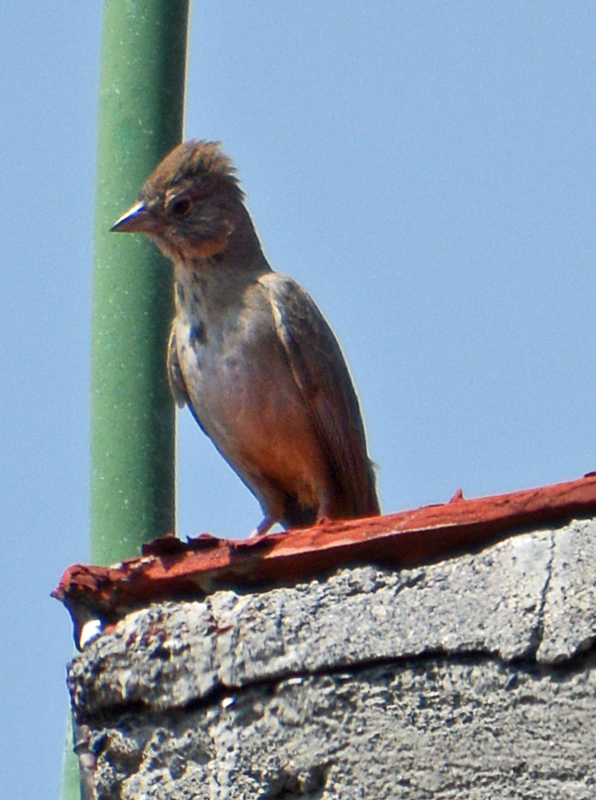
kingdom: Animalia
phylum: Chordata
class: Aves
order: Passeriformes
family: Passerellidae
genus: Melozone
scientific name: Melozone fusca
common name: Canyon towhee
